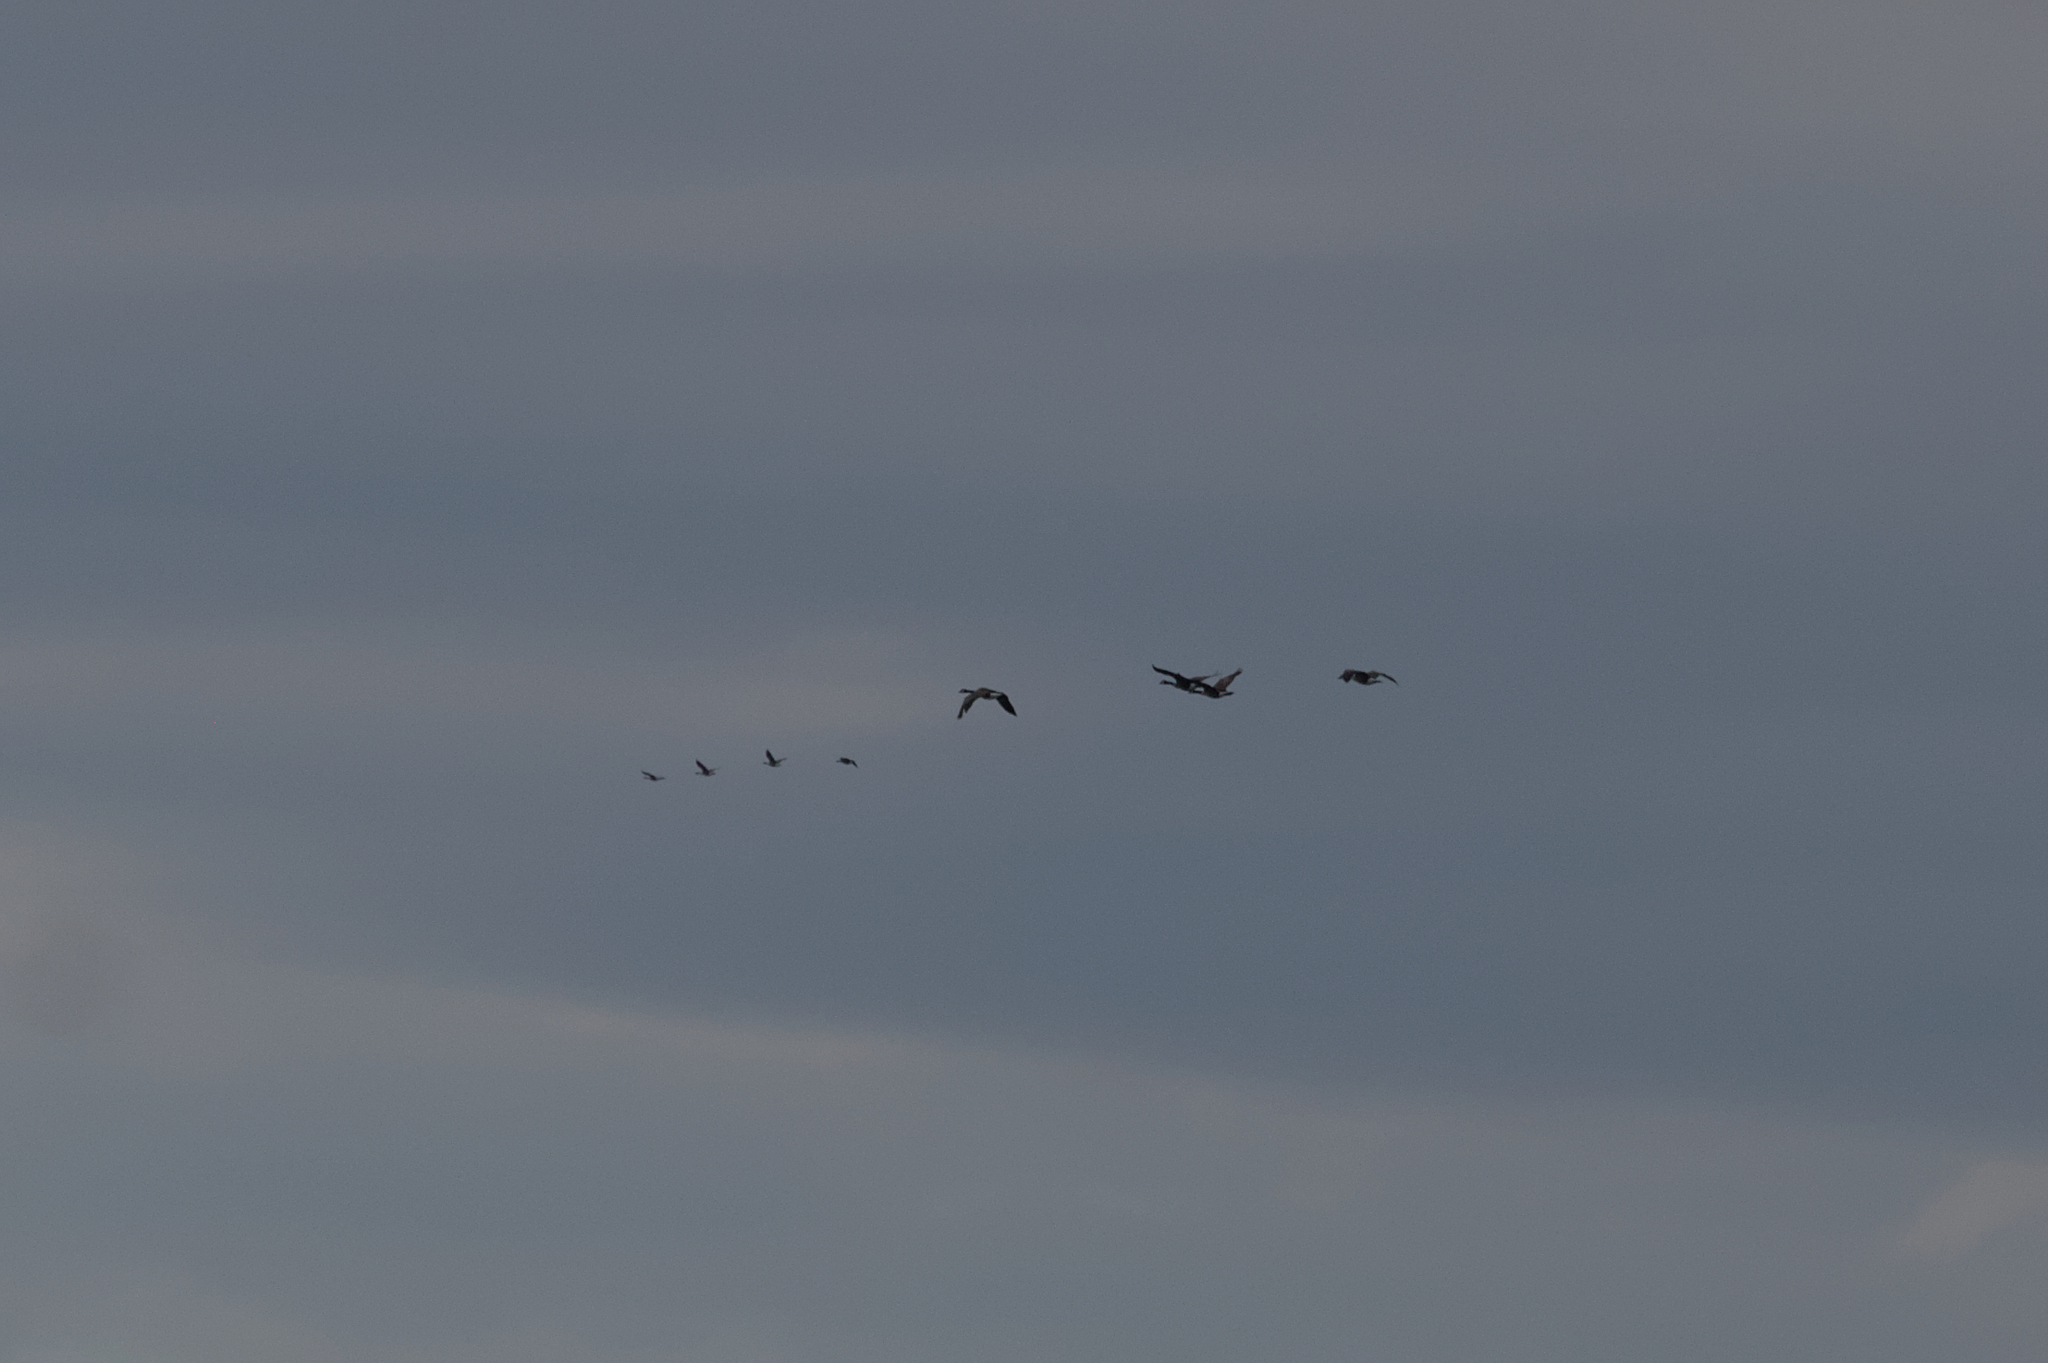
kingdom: Animalia
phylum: Chordata
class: Aves
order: Anseriformes
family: Anatidae
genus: Branta
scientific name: Branta canadensis
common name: Canada goose
